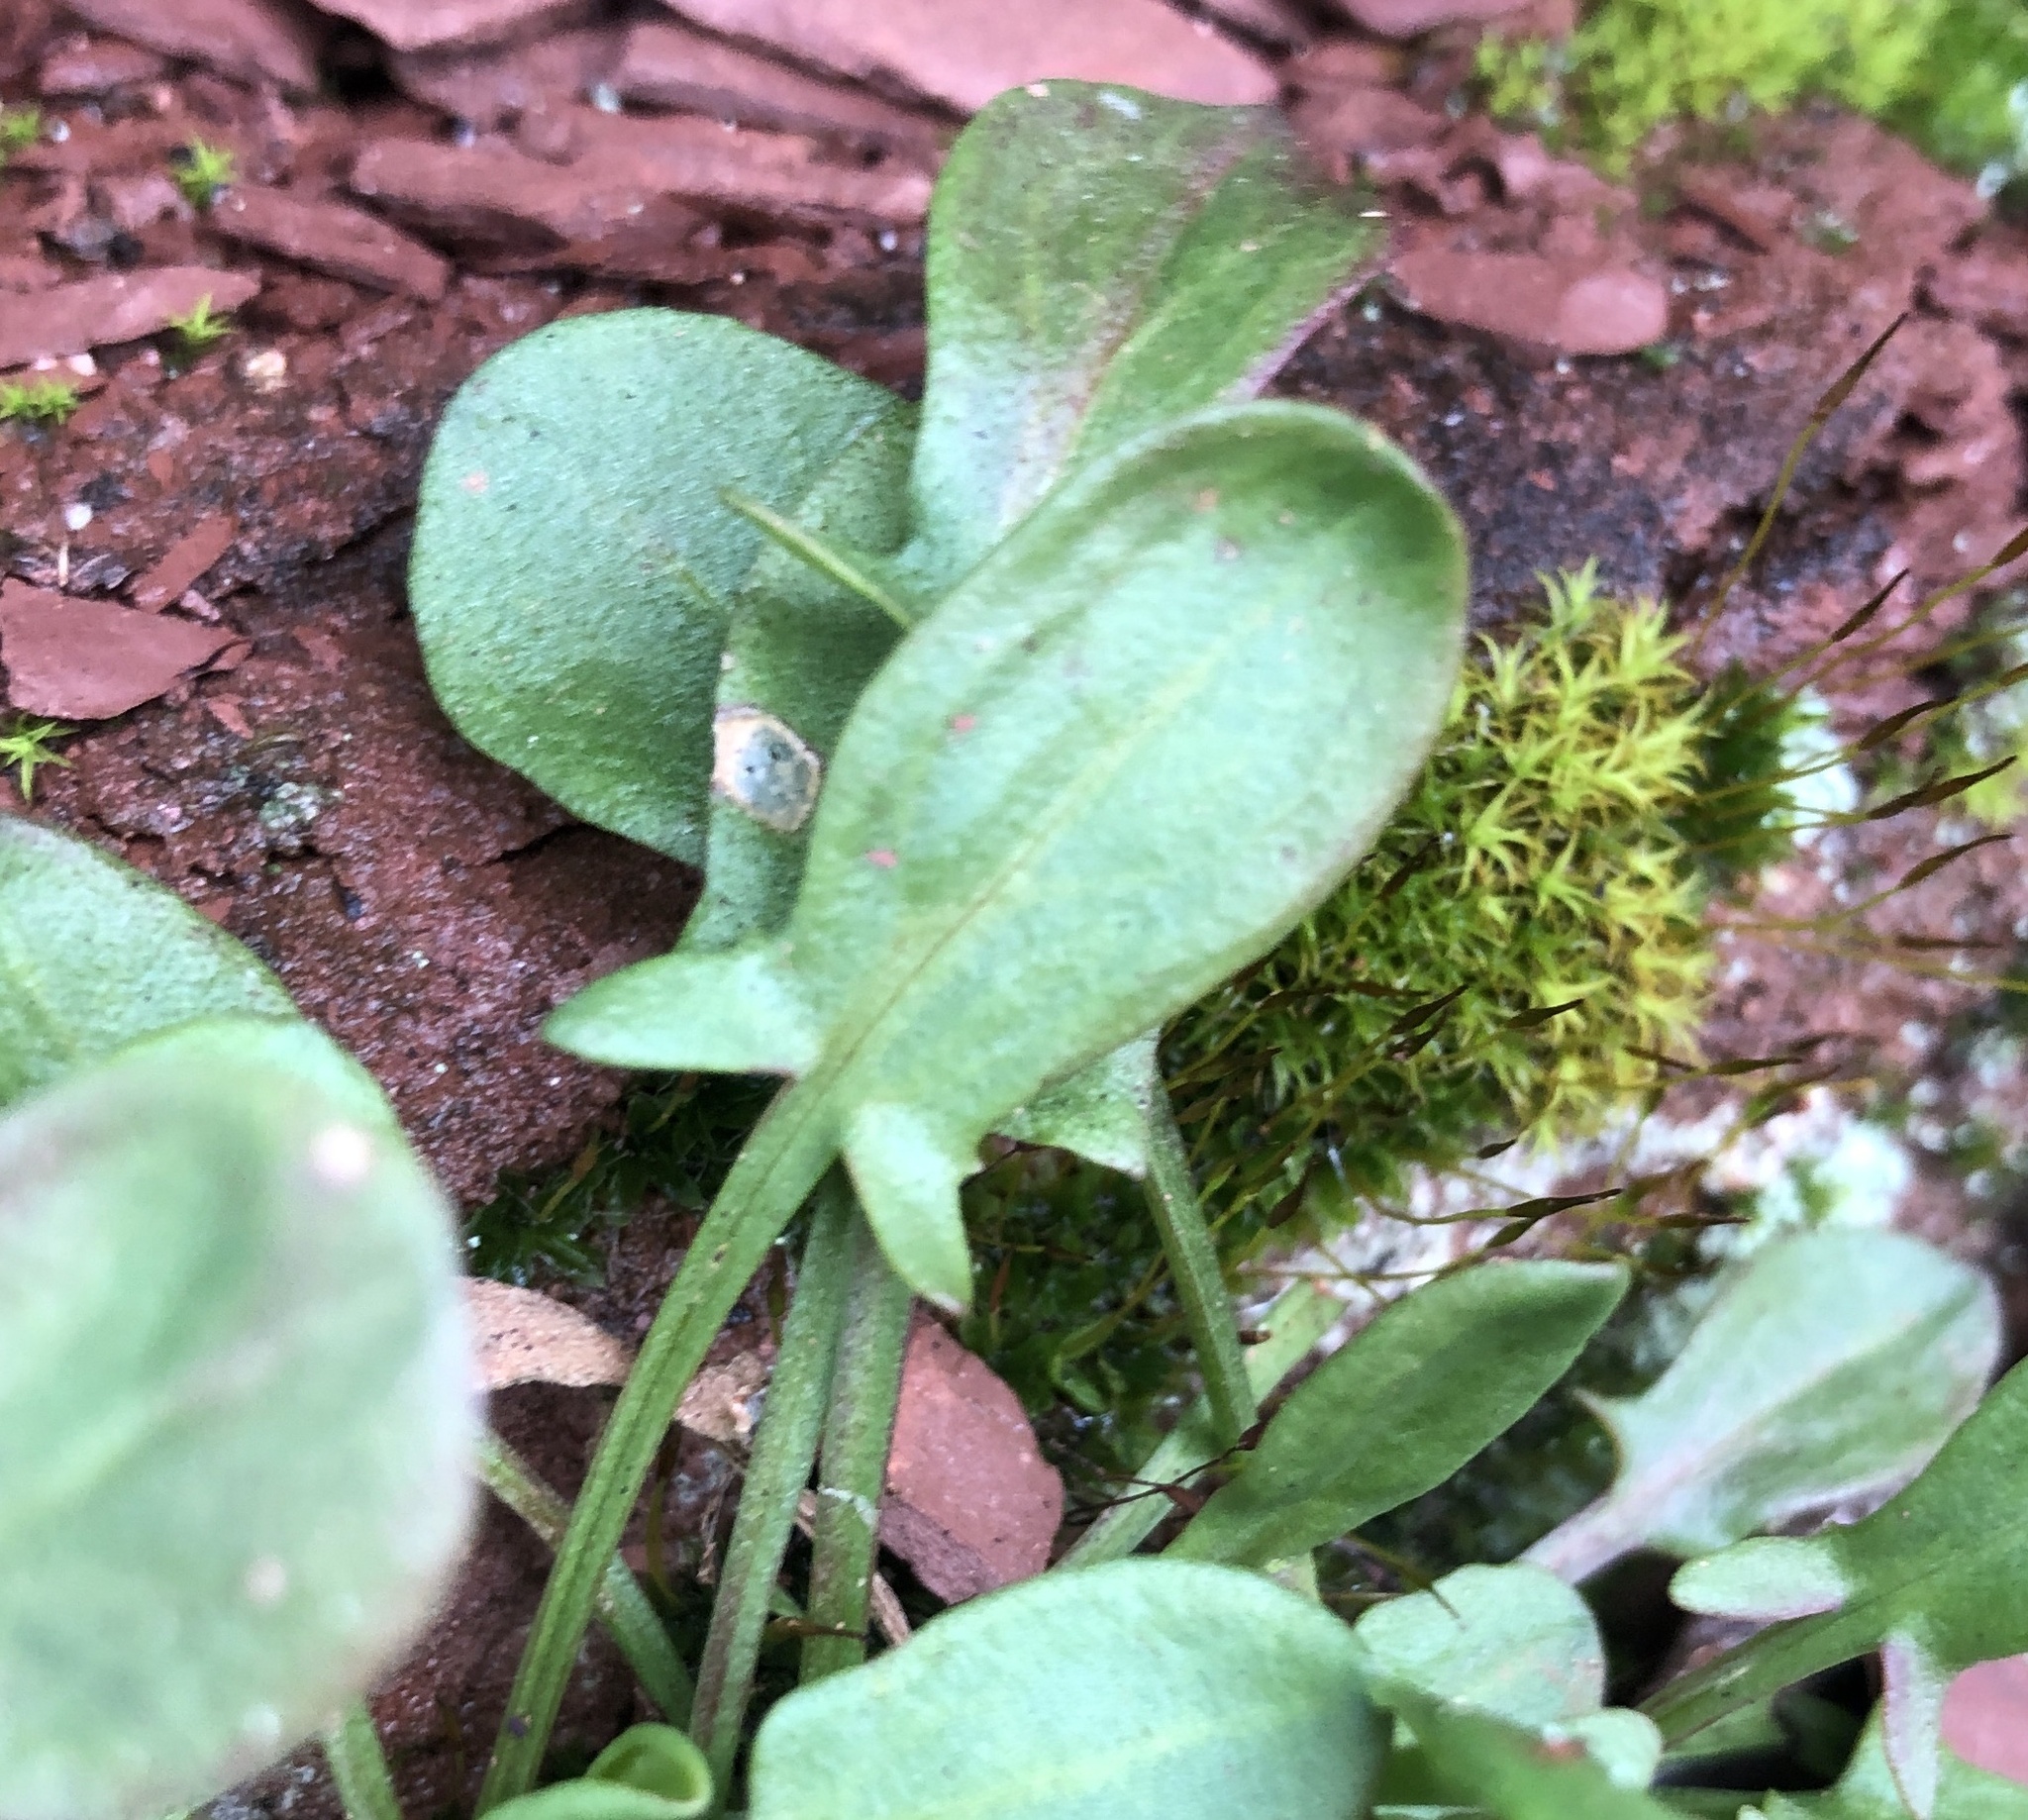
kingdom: Plantae
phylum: Tracheophyta
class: Magnoliopsida
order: Caryophyllales
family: Polygonaceae
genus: Rumex
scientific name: Rumex acetosella
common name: Common sheep sorrel
